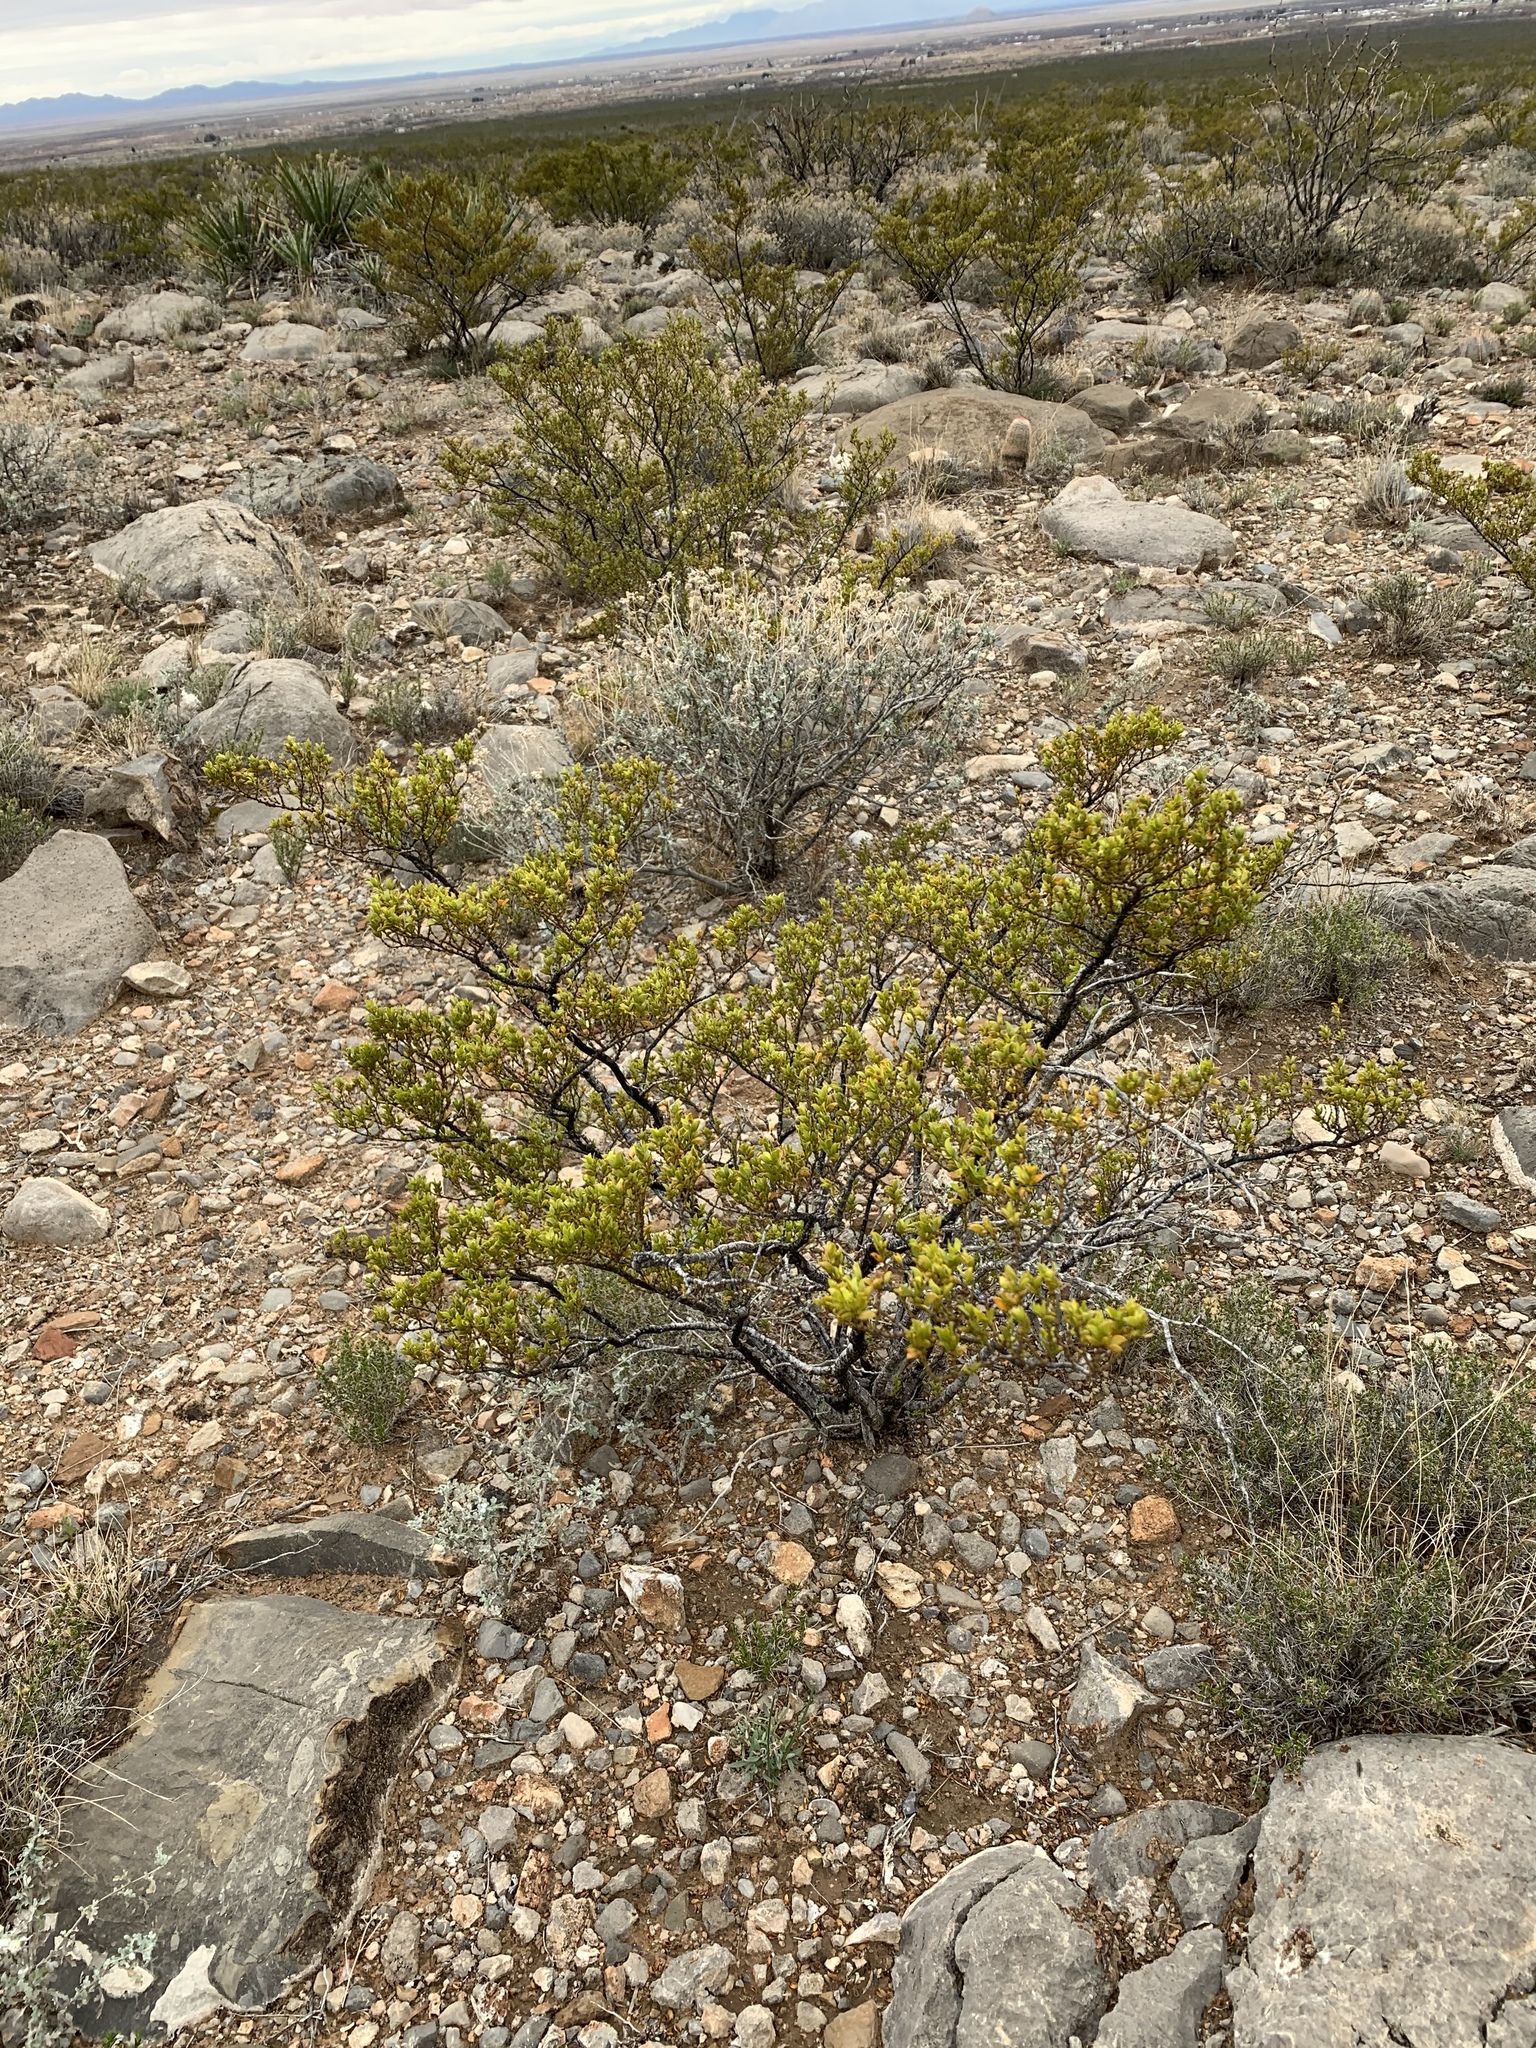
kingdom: Plantae
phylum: Tracheophyta
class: Magnoliopsida
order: Zygophyllales
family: Zygophyllaceae
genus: Larrea
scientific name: Larrea tridentata
